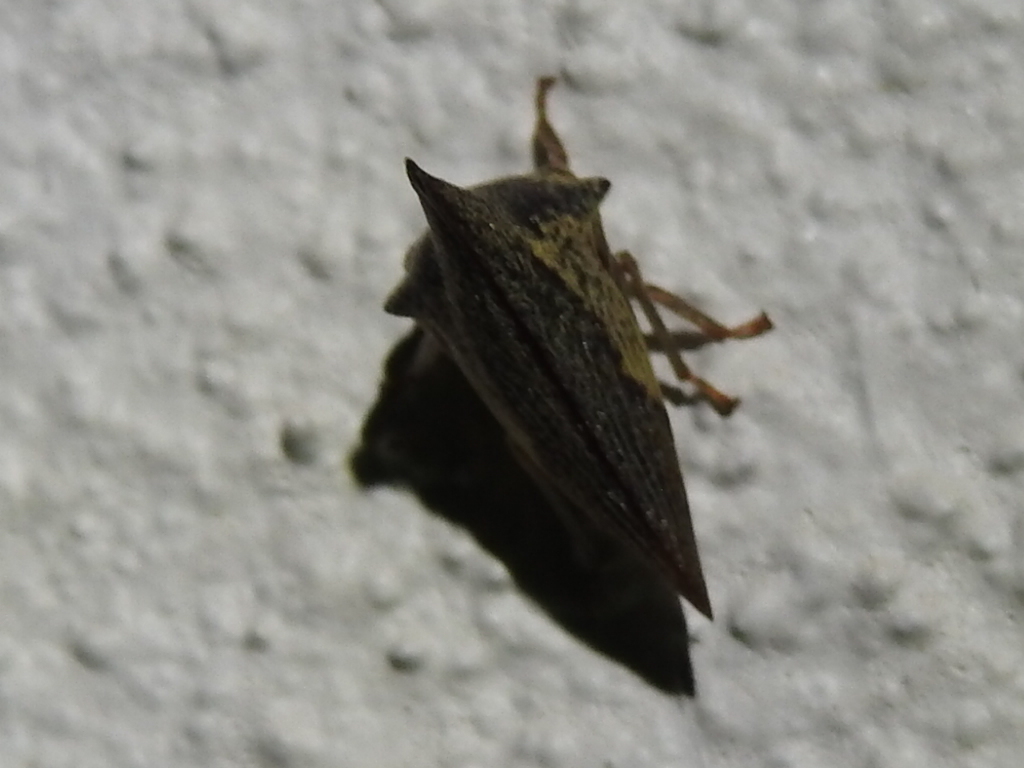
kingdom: Animalia
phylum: Arthropoda
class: Insecta
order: Hemiptera
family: Membracidae
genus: Thelia
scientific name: Thelia bimaculata
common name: Locust treehopper
